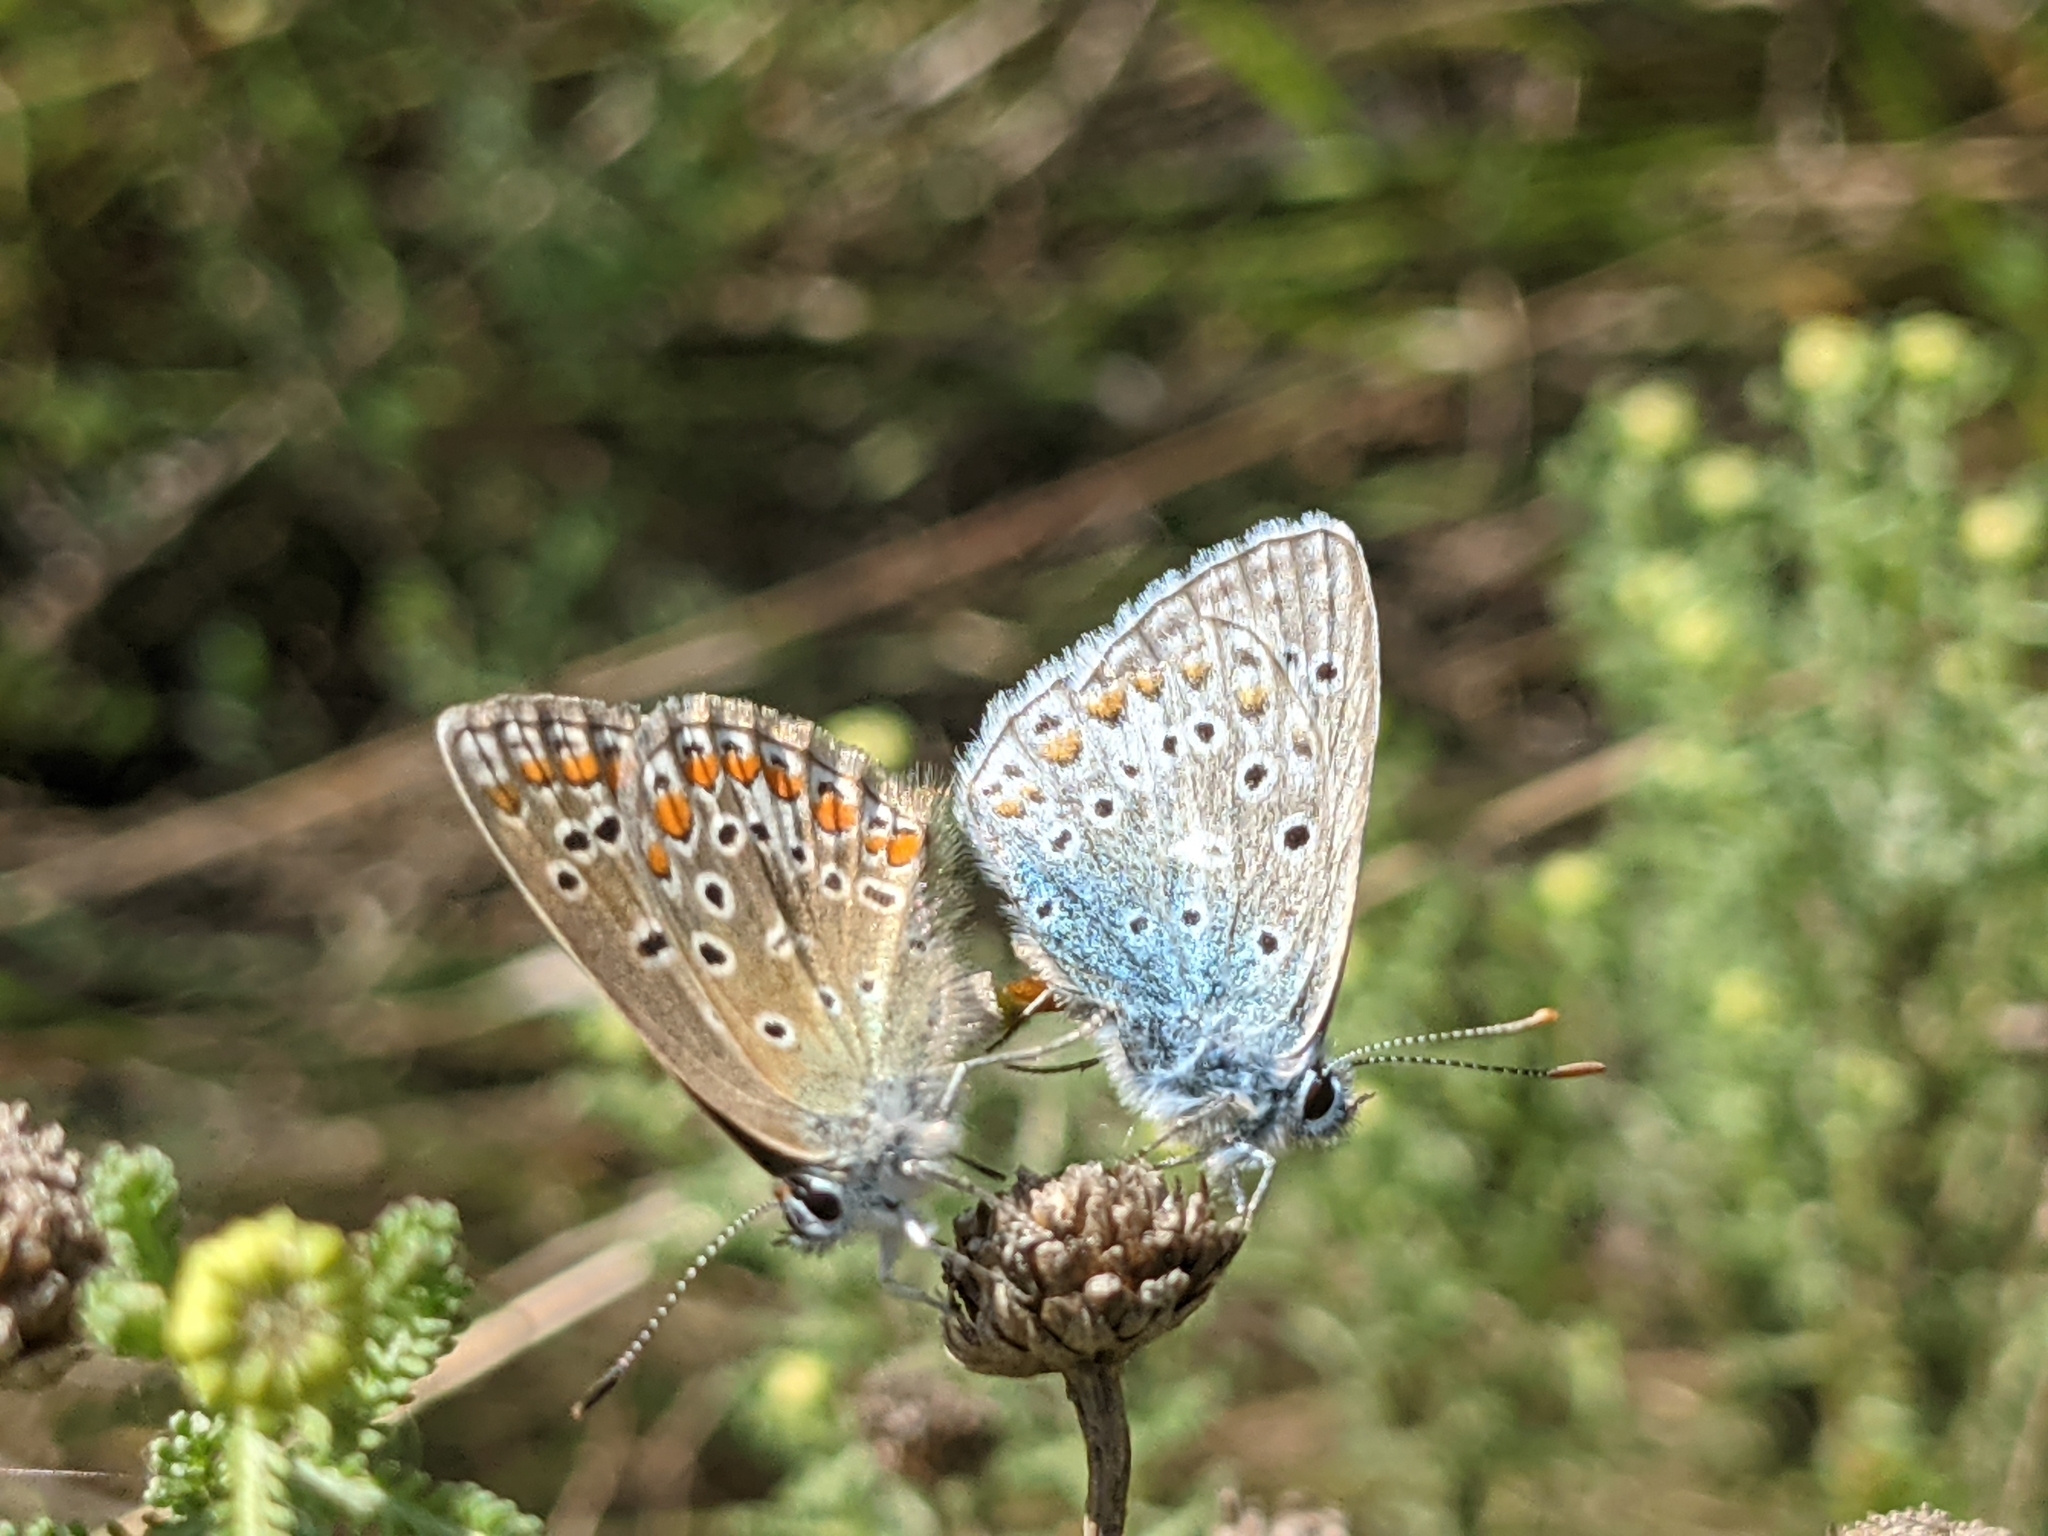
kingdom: Animalia
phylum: Arthropoda
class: Insecta
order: Lepidoptera
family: Lycaenidae
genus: Polyommatus
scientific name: Polyommatus icarus
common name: Common blue
